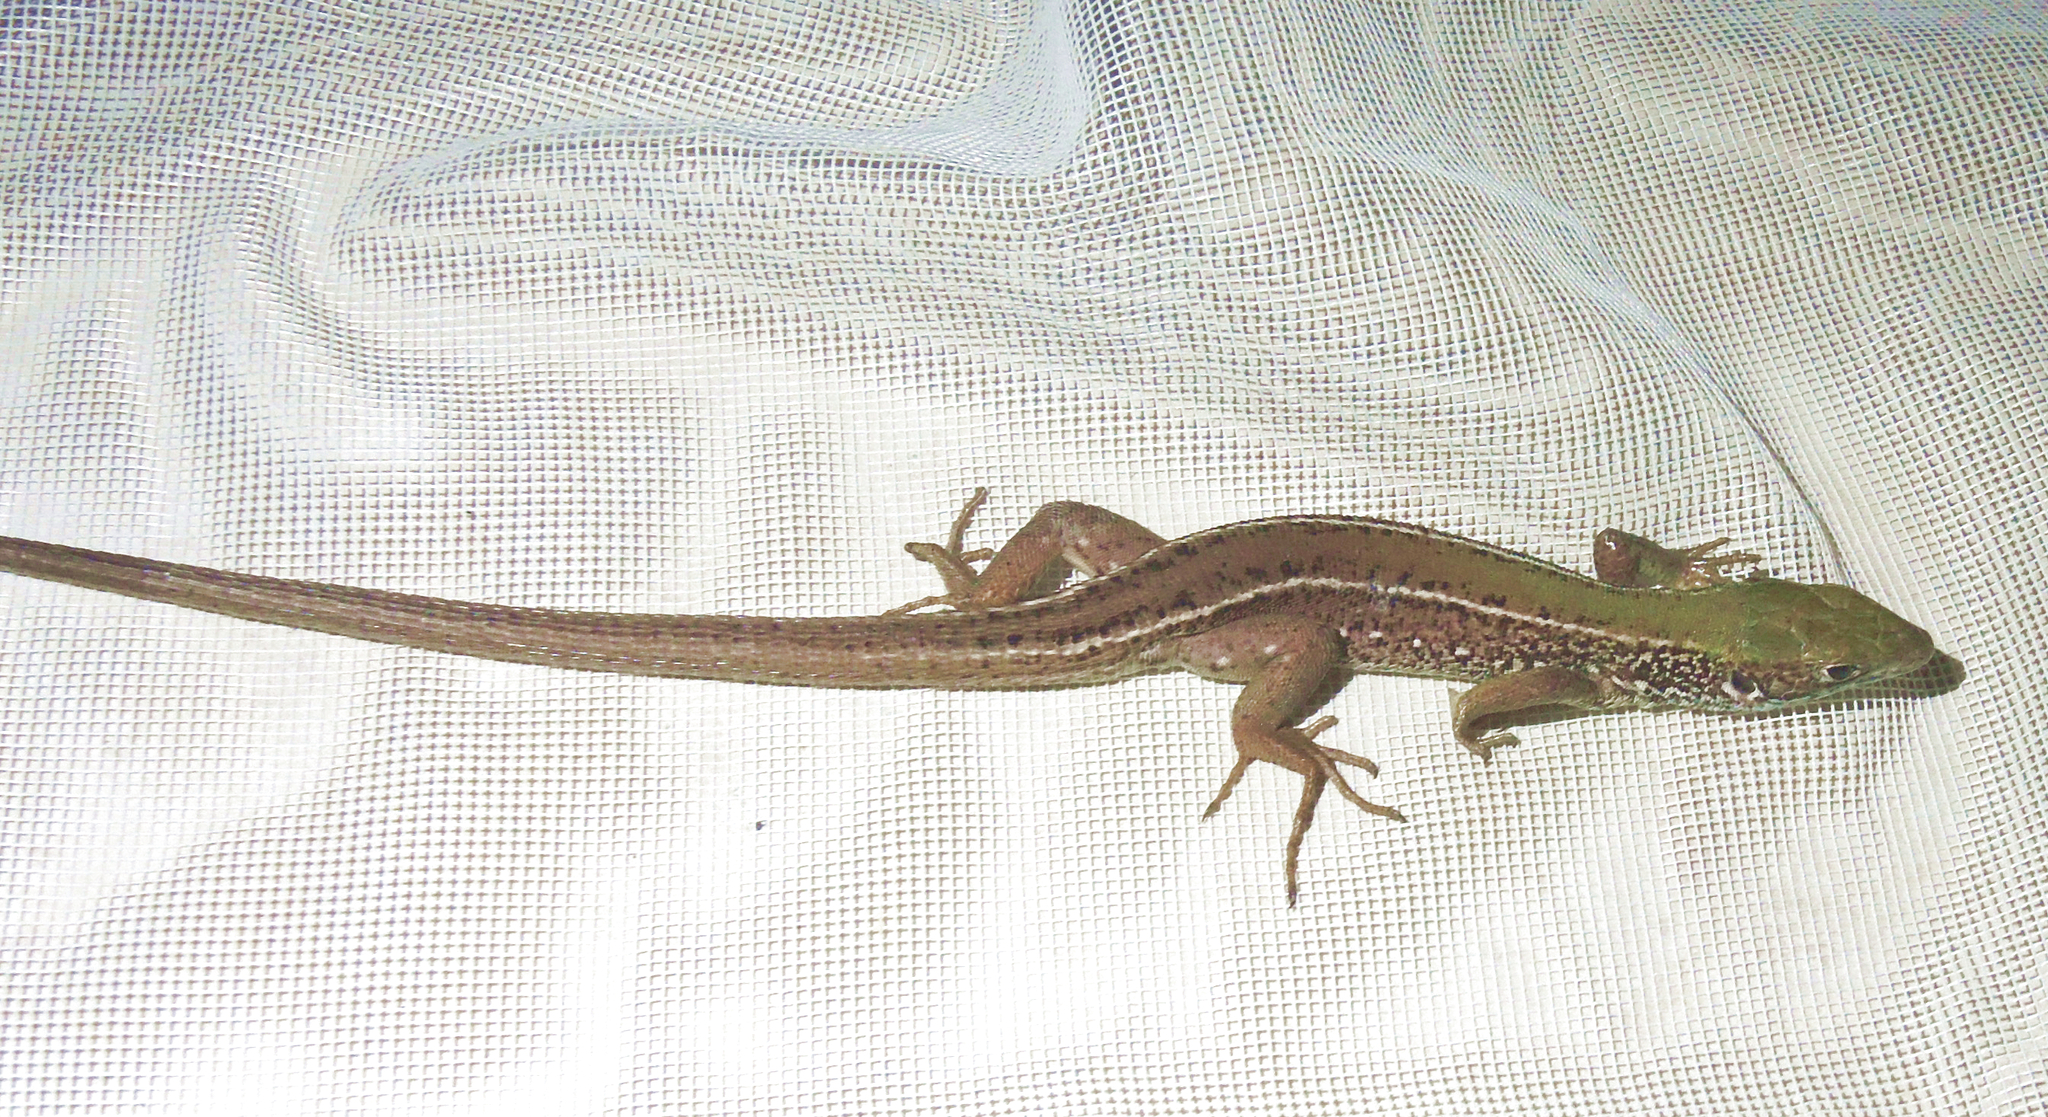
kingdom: Animalia
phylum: Chordata
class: Squamata
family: Lacertidae
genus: Podarcis
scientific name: Podarcis tauricus
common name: Balkan wall lizard
